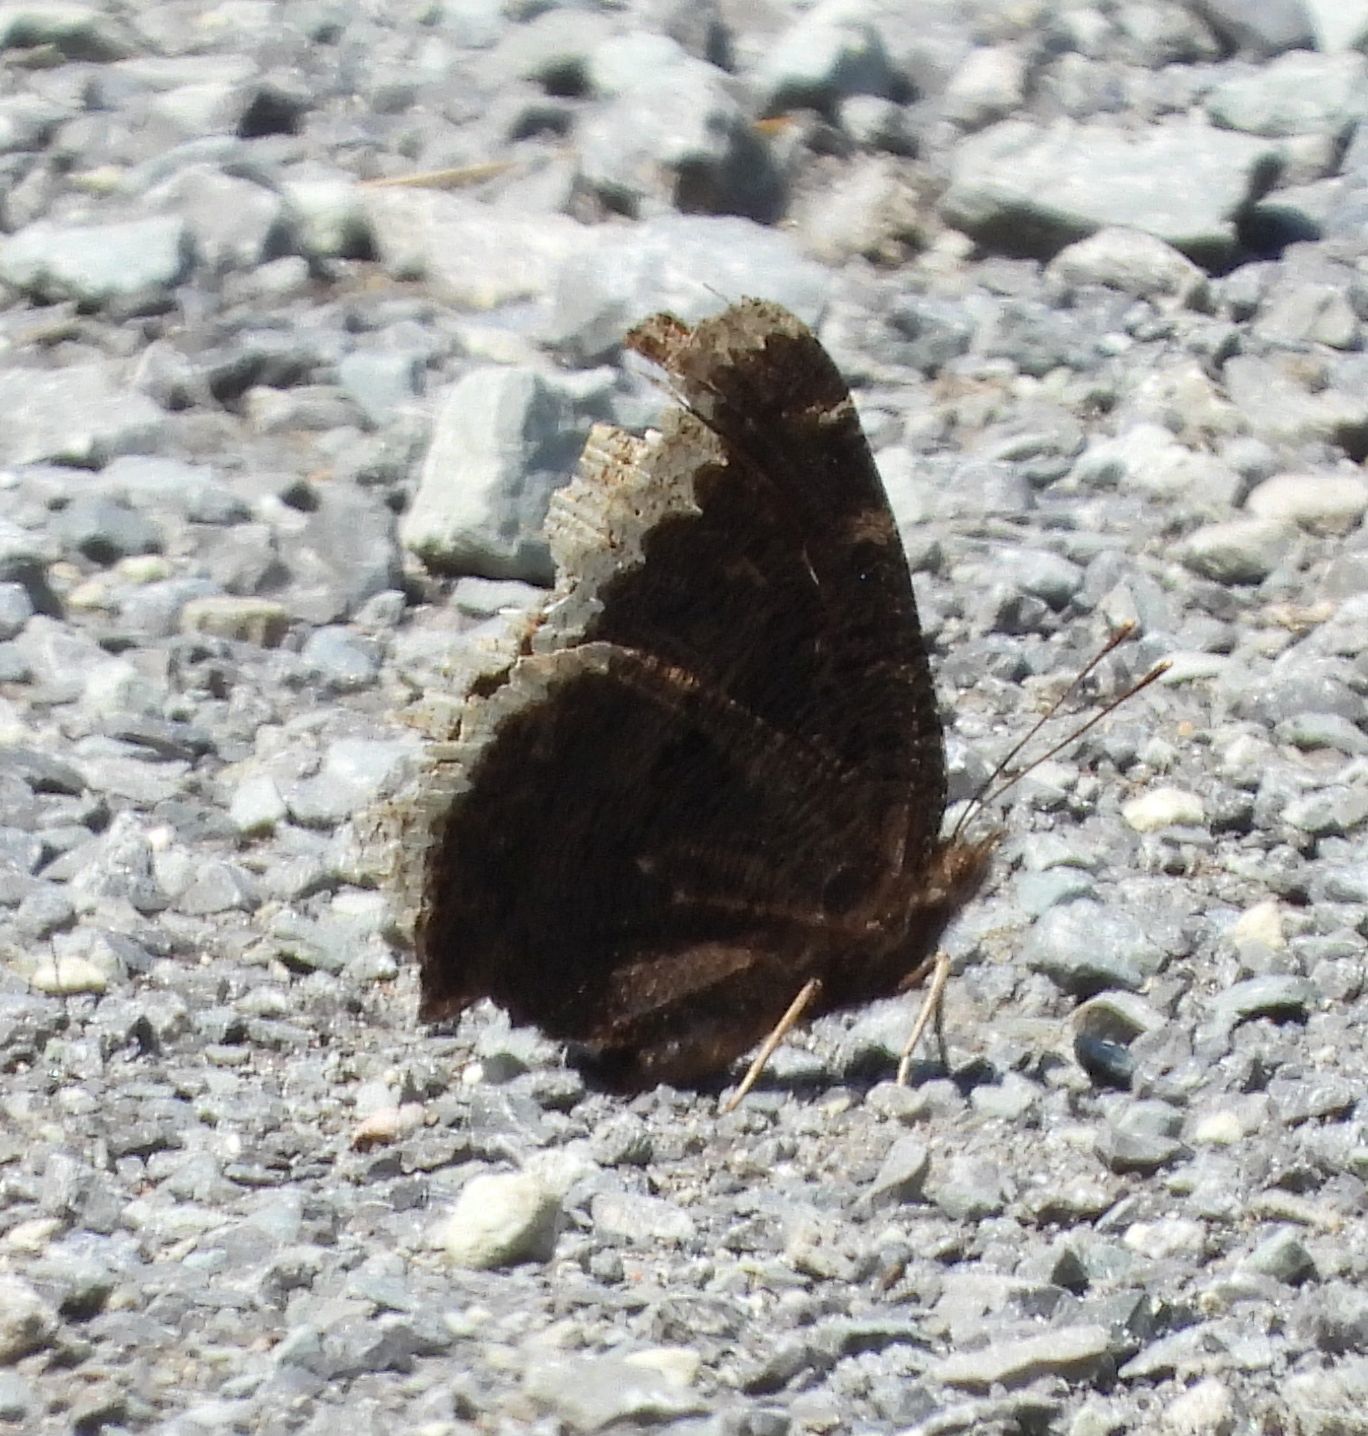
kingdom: Animalia
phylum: Arthropoda
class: Insecta
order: Lepidoptera
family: Nymphalidae
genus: Nymphalis
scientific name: Nymphalis antiopa
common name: Camberwell beauty
